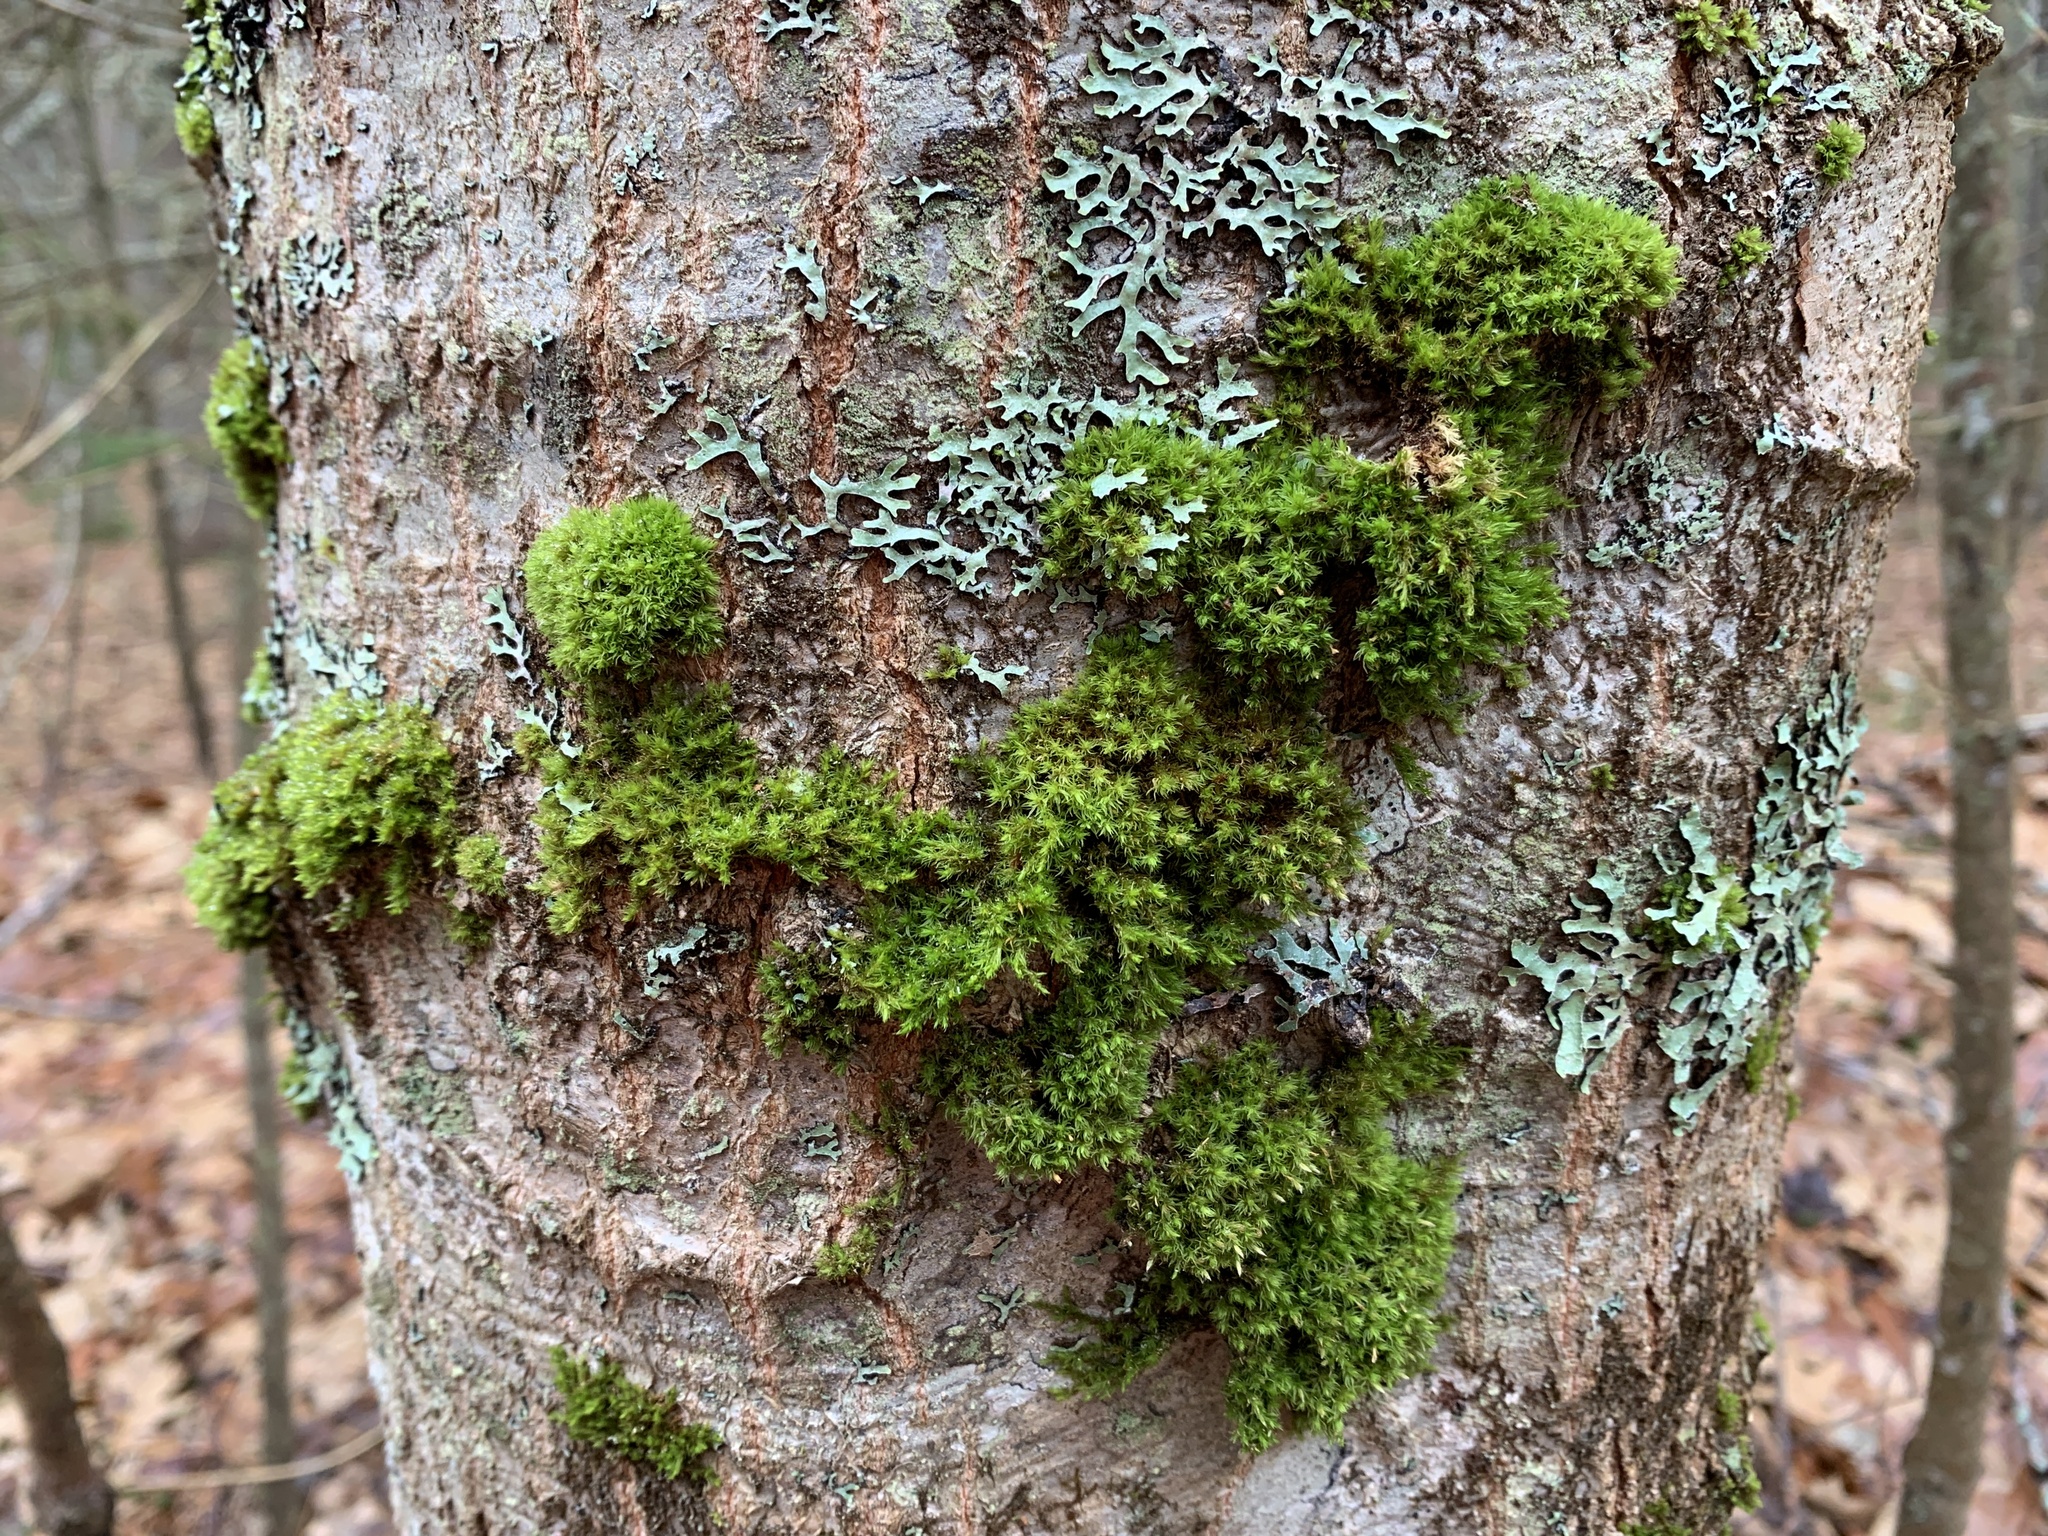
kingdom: Plantae
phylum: Bryophyta
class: Bryopsida
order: Orthotrichales
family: Orthotrichaceae
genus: Ulota
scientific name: Ulota crispa
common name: Crisped pincushion moss
